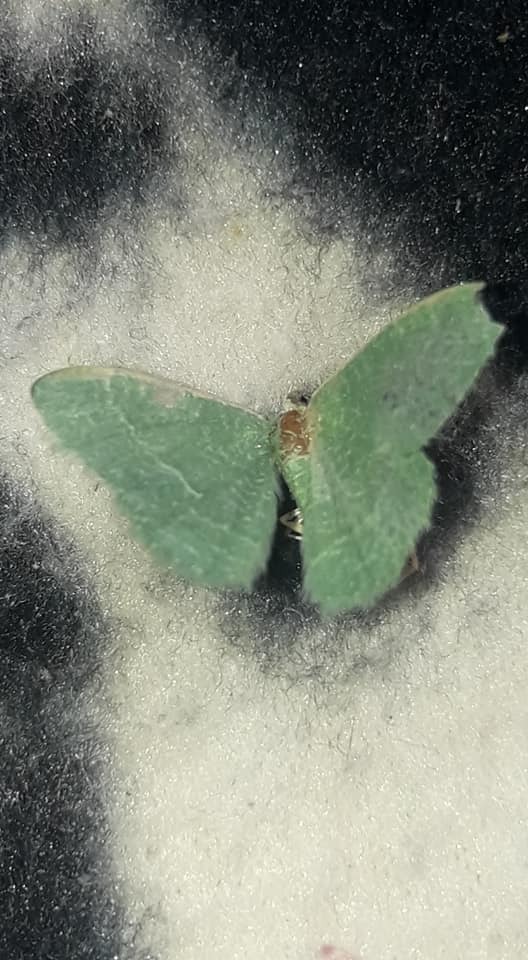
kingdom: Animalia
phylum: Arthropoda
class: Insecta
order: Lepidoptera
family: Geometridae
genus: Chlorissa
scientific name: Chlorissa etruscaria
